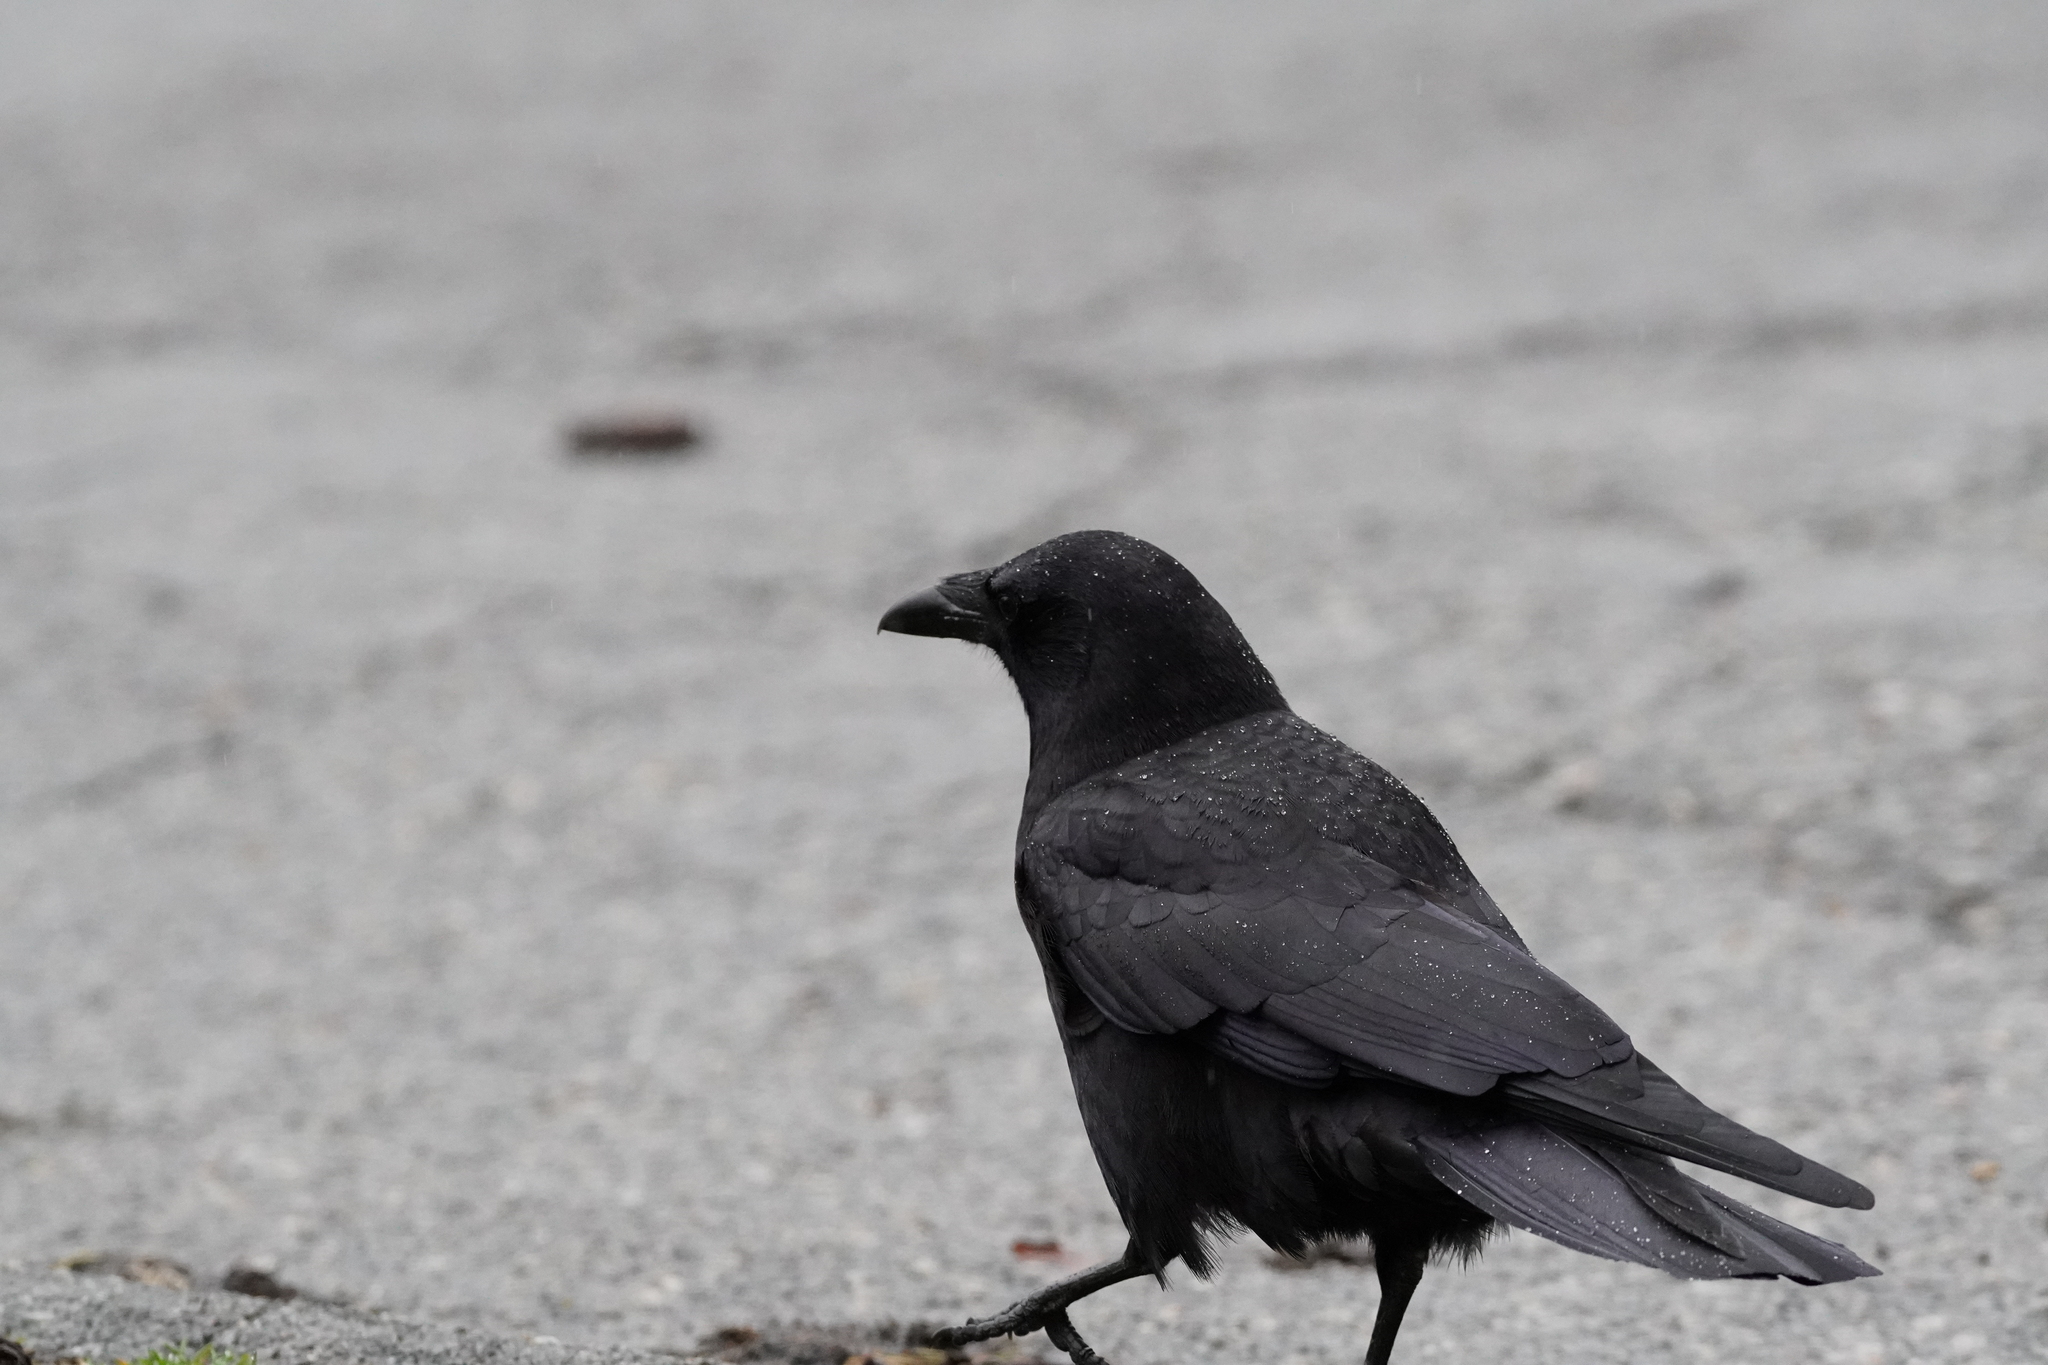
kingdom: Animalia
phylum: Chordata
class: Aves
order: Passeriformes
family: Corvidae
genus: Corvus
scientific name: Corvus brachyrhynchos
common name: American crow
